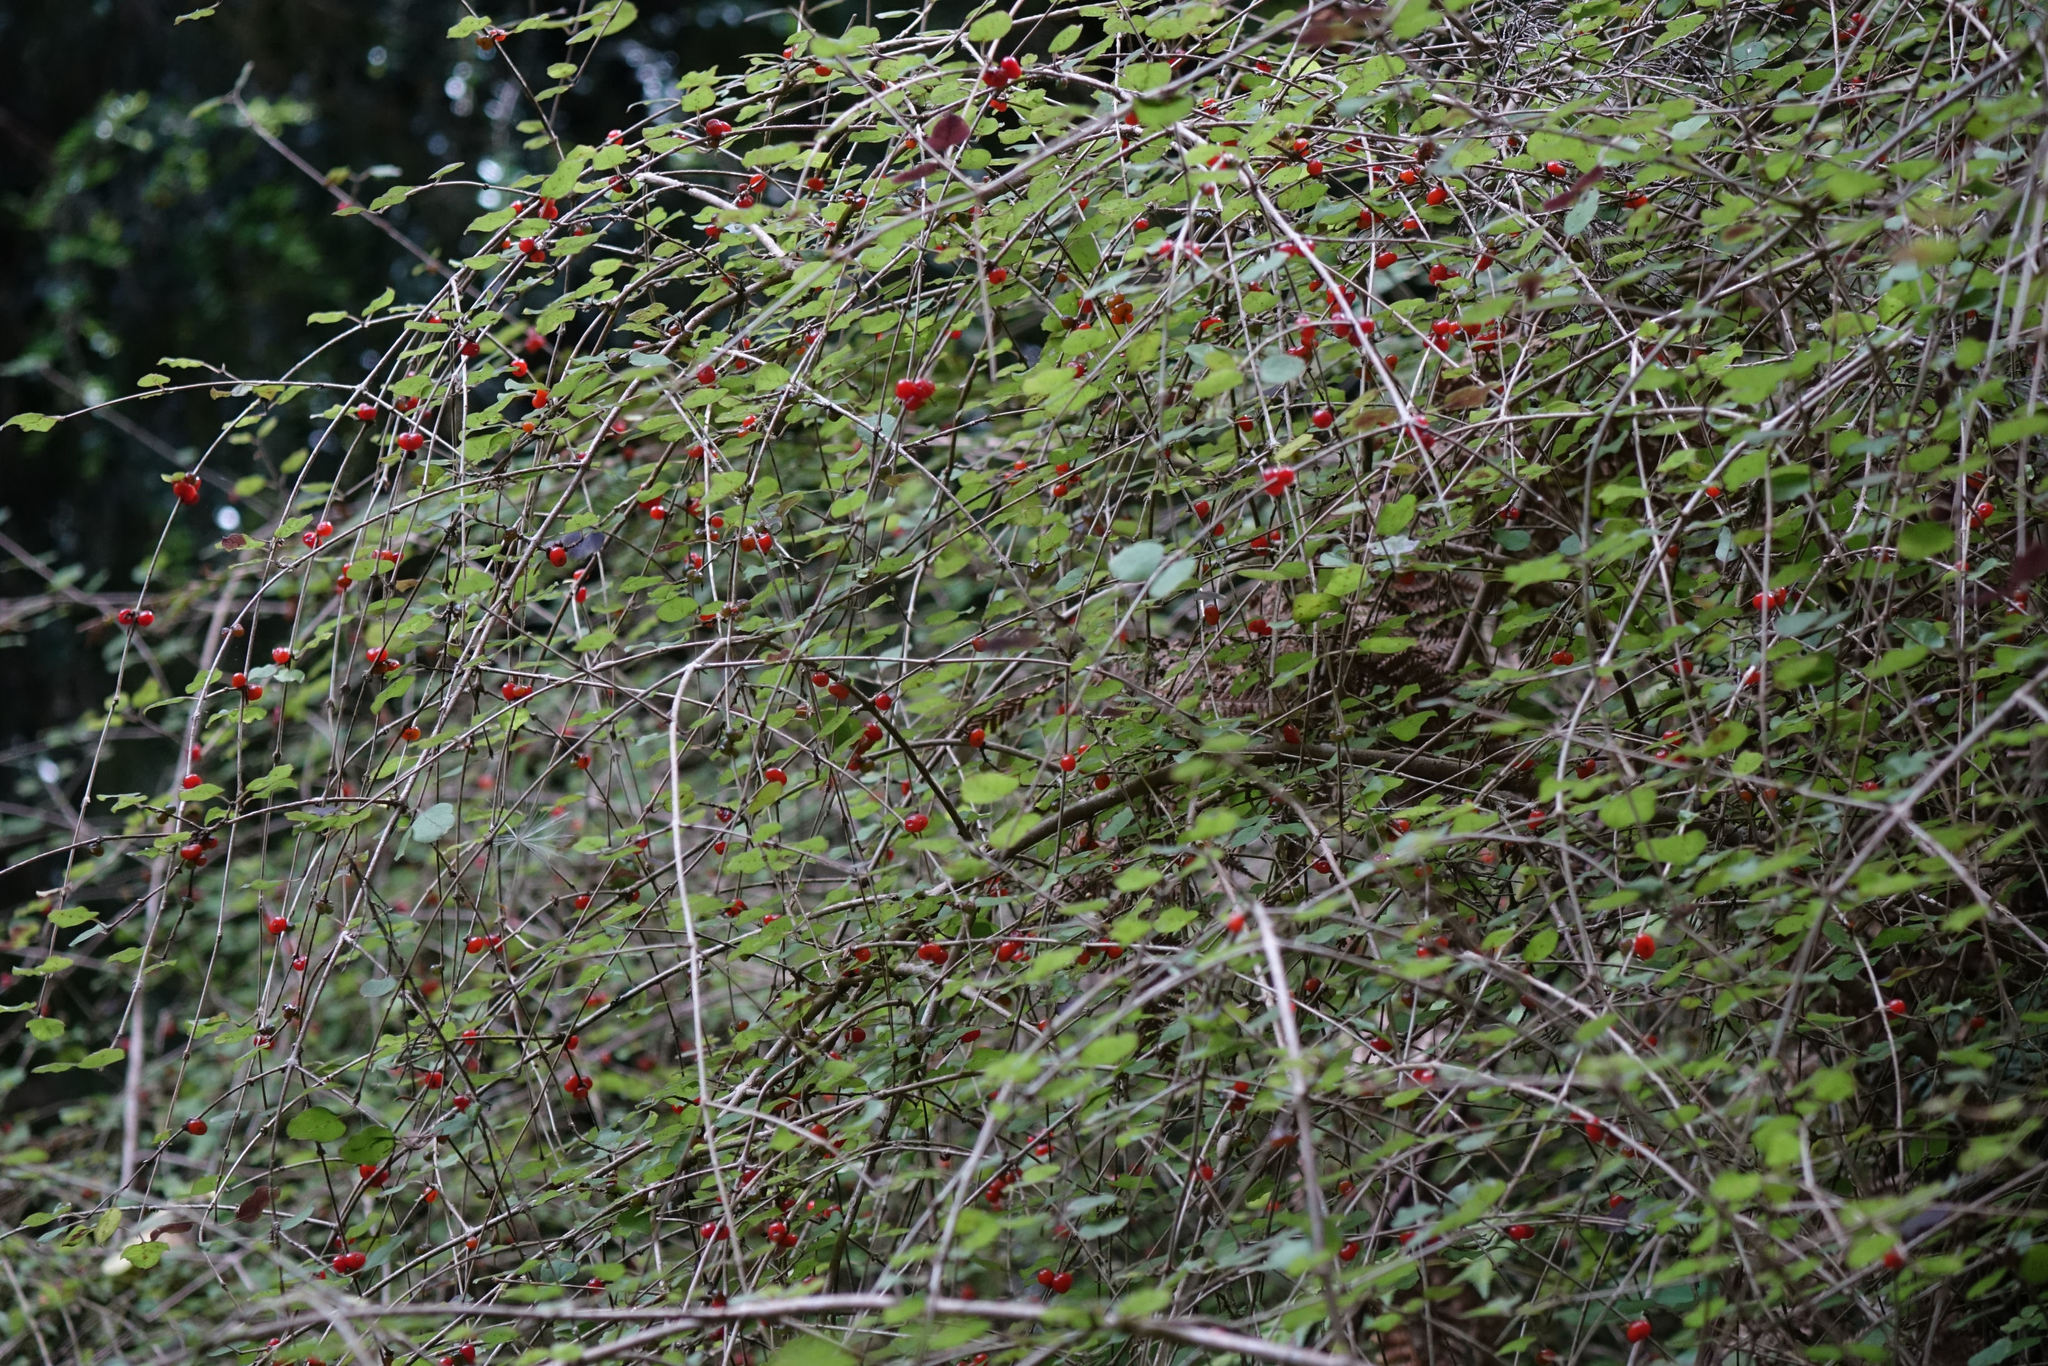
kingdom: Plantae
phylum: Tracheophyta
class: Magnoliopsida
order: Gentianales
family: Rubiaceae
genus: Coprosma
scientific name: Coprosma rotundifolia
